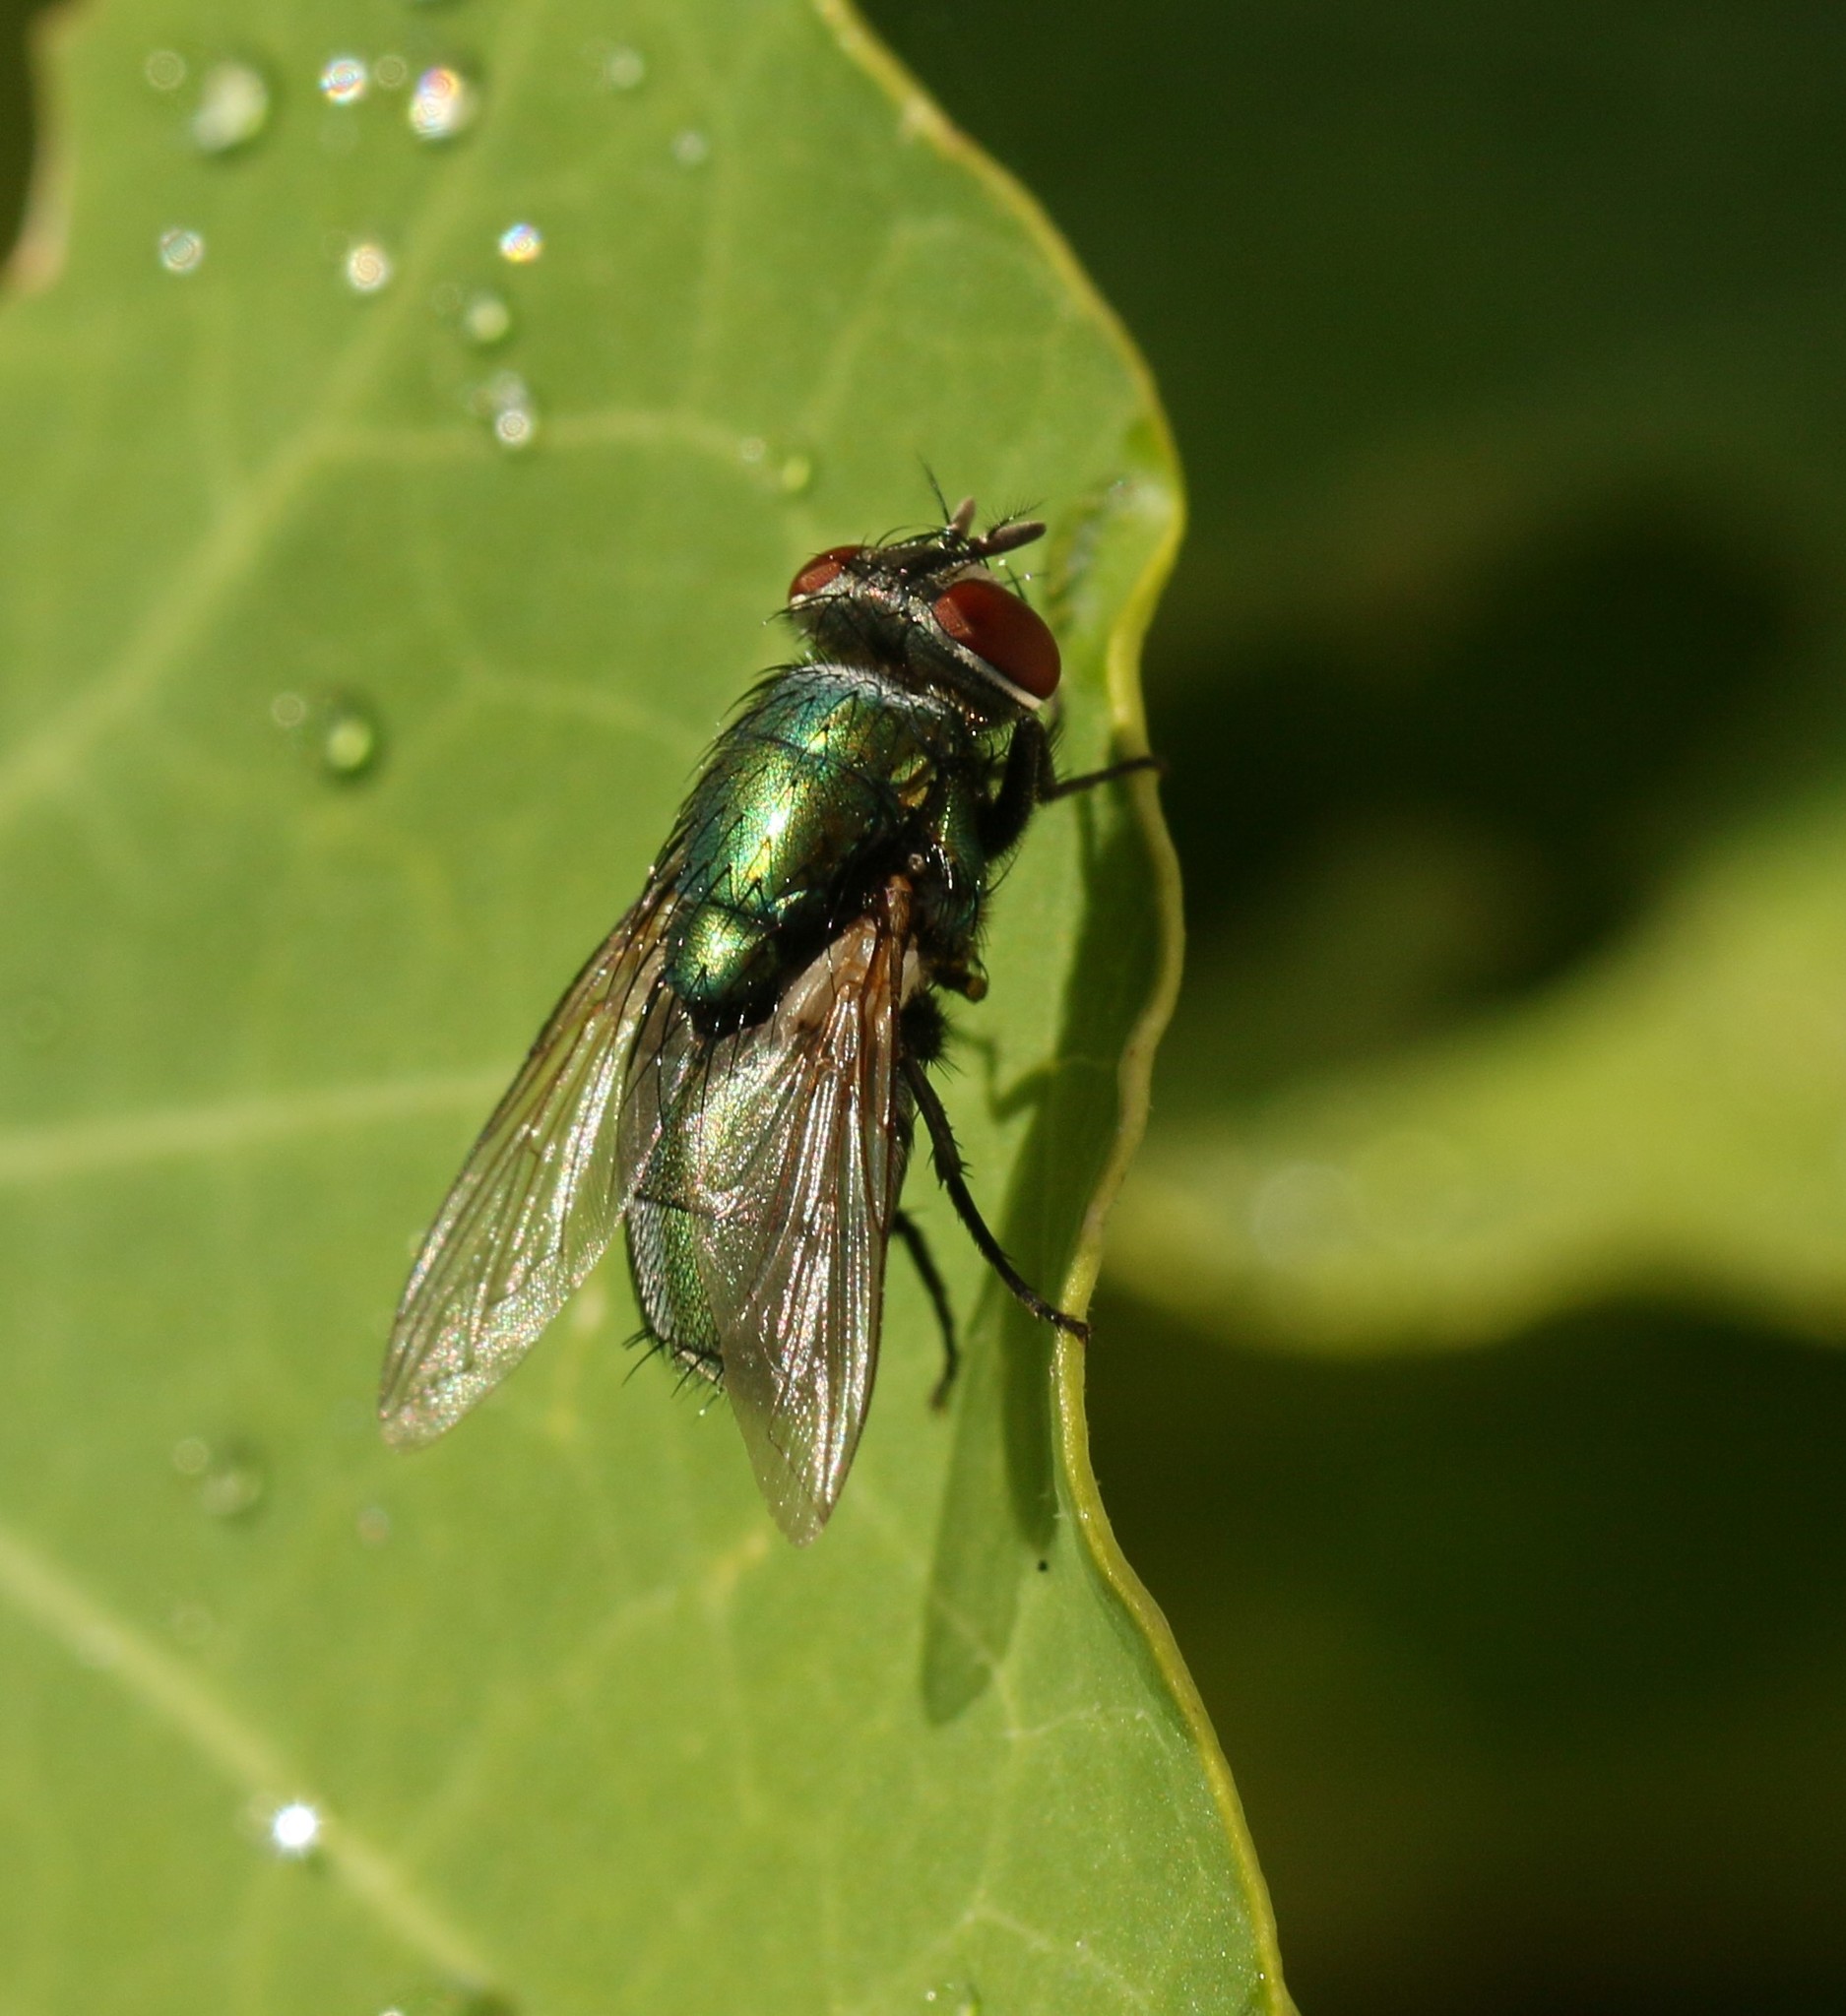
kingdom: Animalia
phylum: Arthropoda
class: Insecta
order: Diptera
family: Calliphoridae
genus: Lucilia
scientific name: Lucilia sericata
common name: Blow fly
